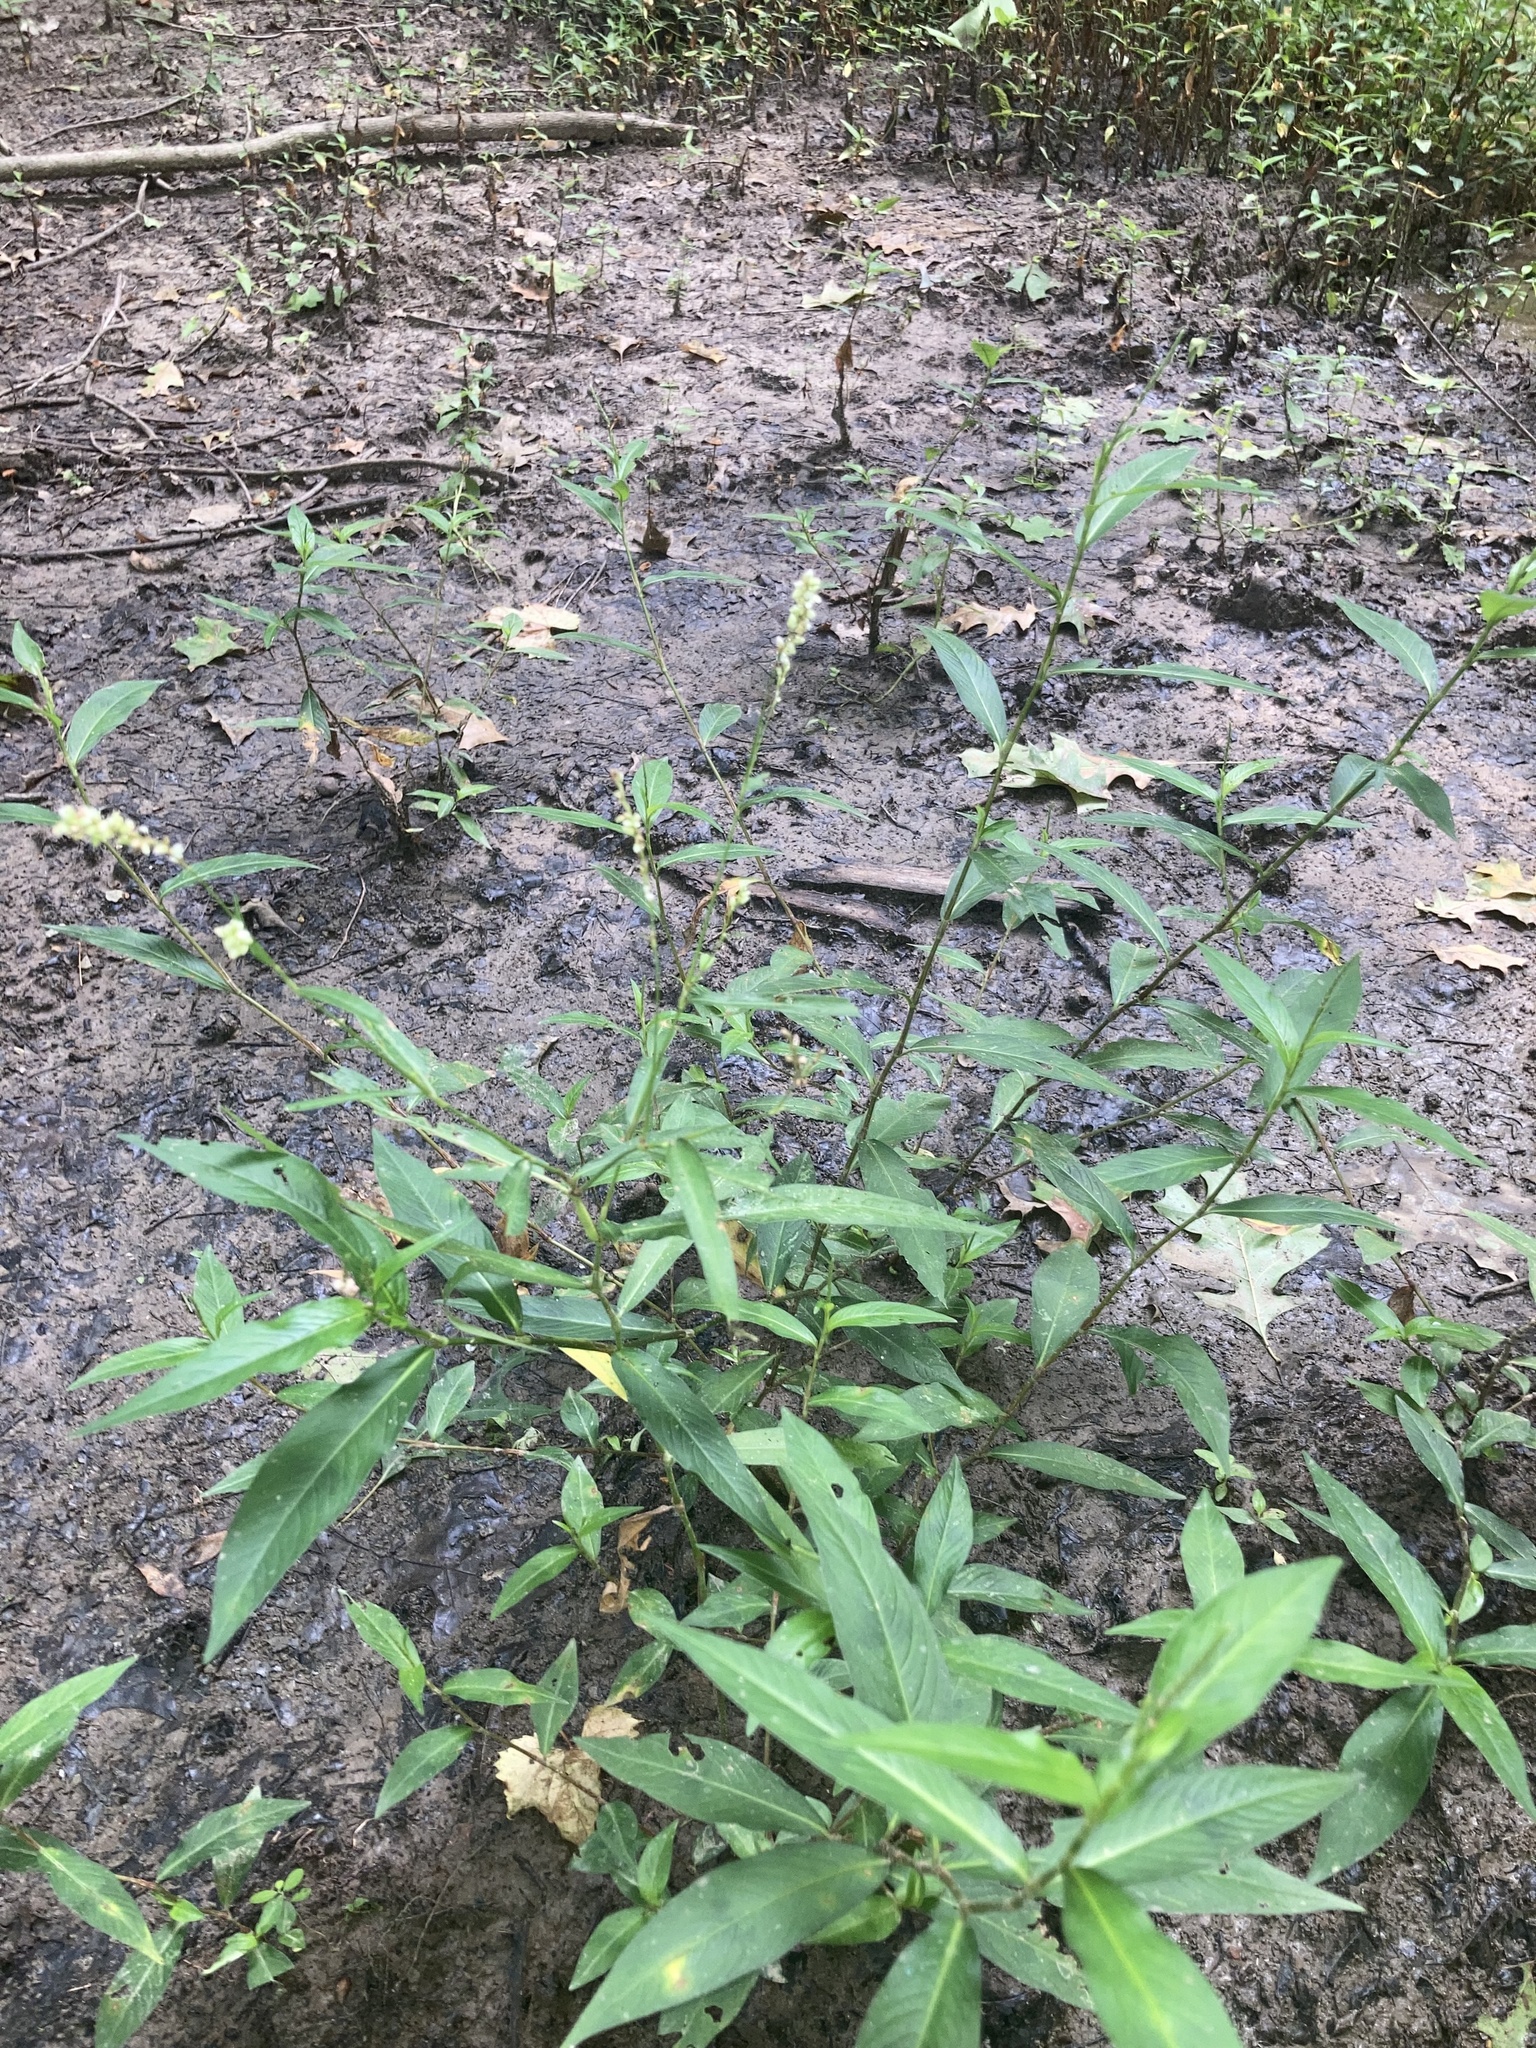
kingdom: Plantae
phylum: Tracheophyta
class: Magnoliopsida
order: Caryophyllales
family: Polygonaceae
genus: Persicaria
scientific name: Persicaria robustior
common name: Stout smartweed
